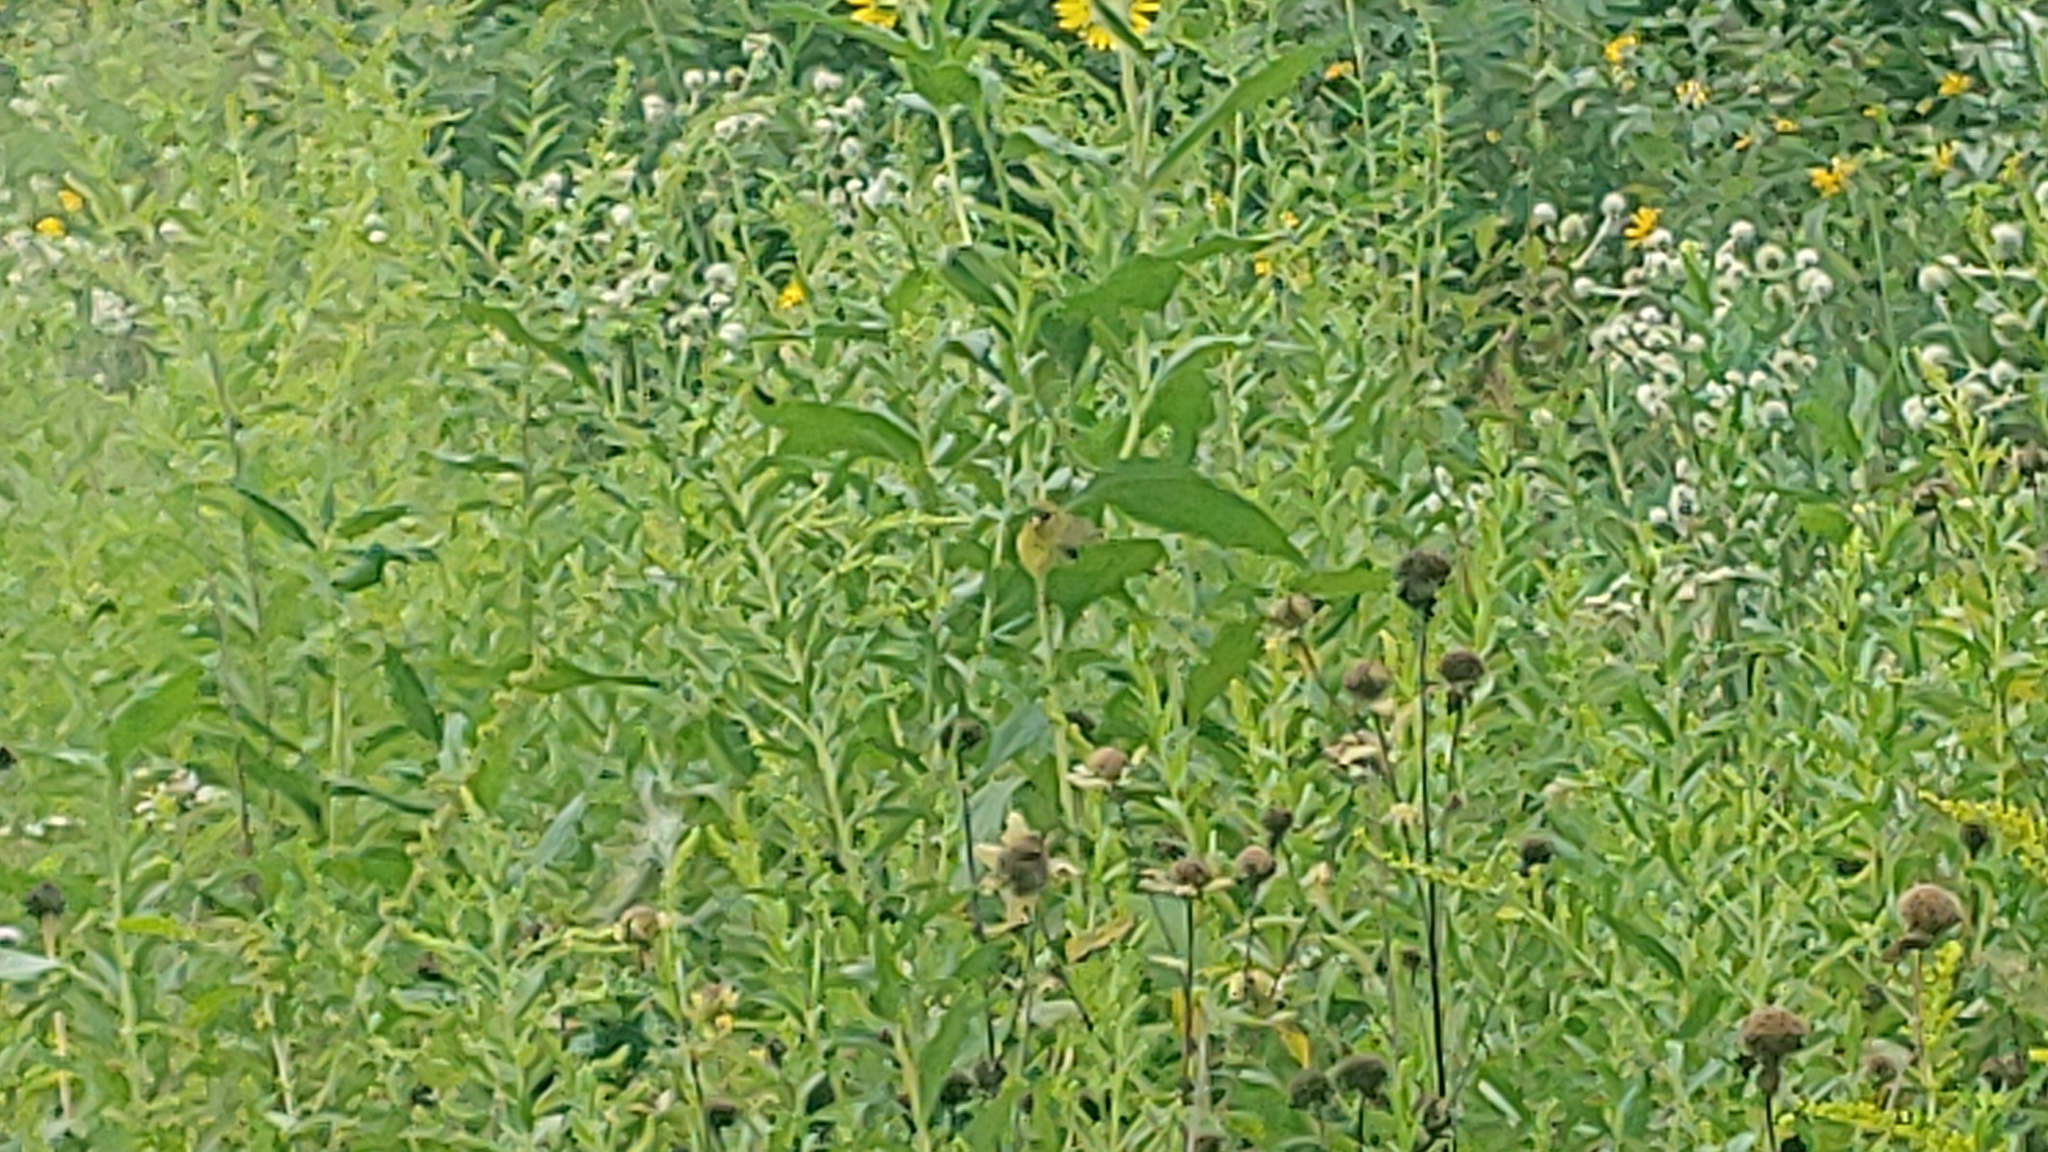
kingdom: Animalia
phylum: Chordata
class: Aves
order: Passeriformes
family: Fringillidae
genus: Spinus
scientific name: Spinus tristis
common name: American goldfinch
